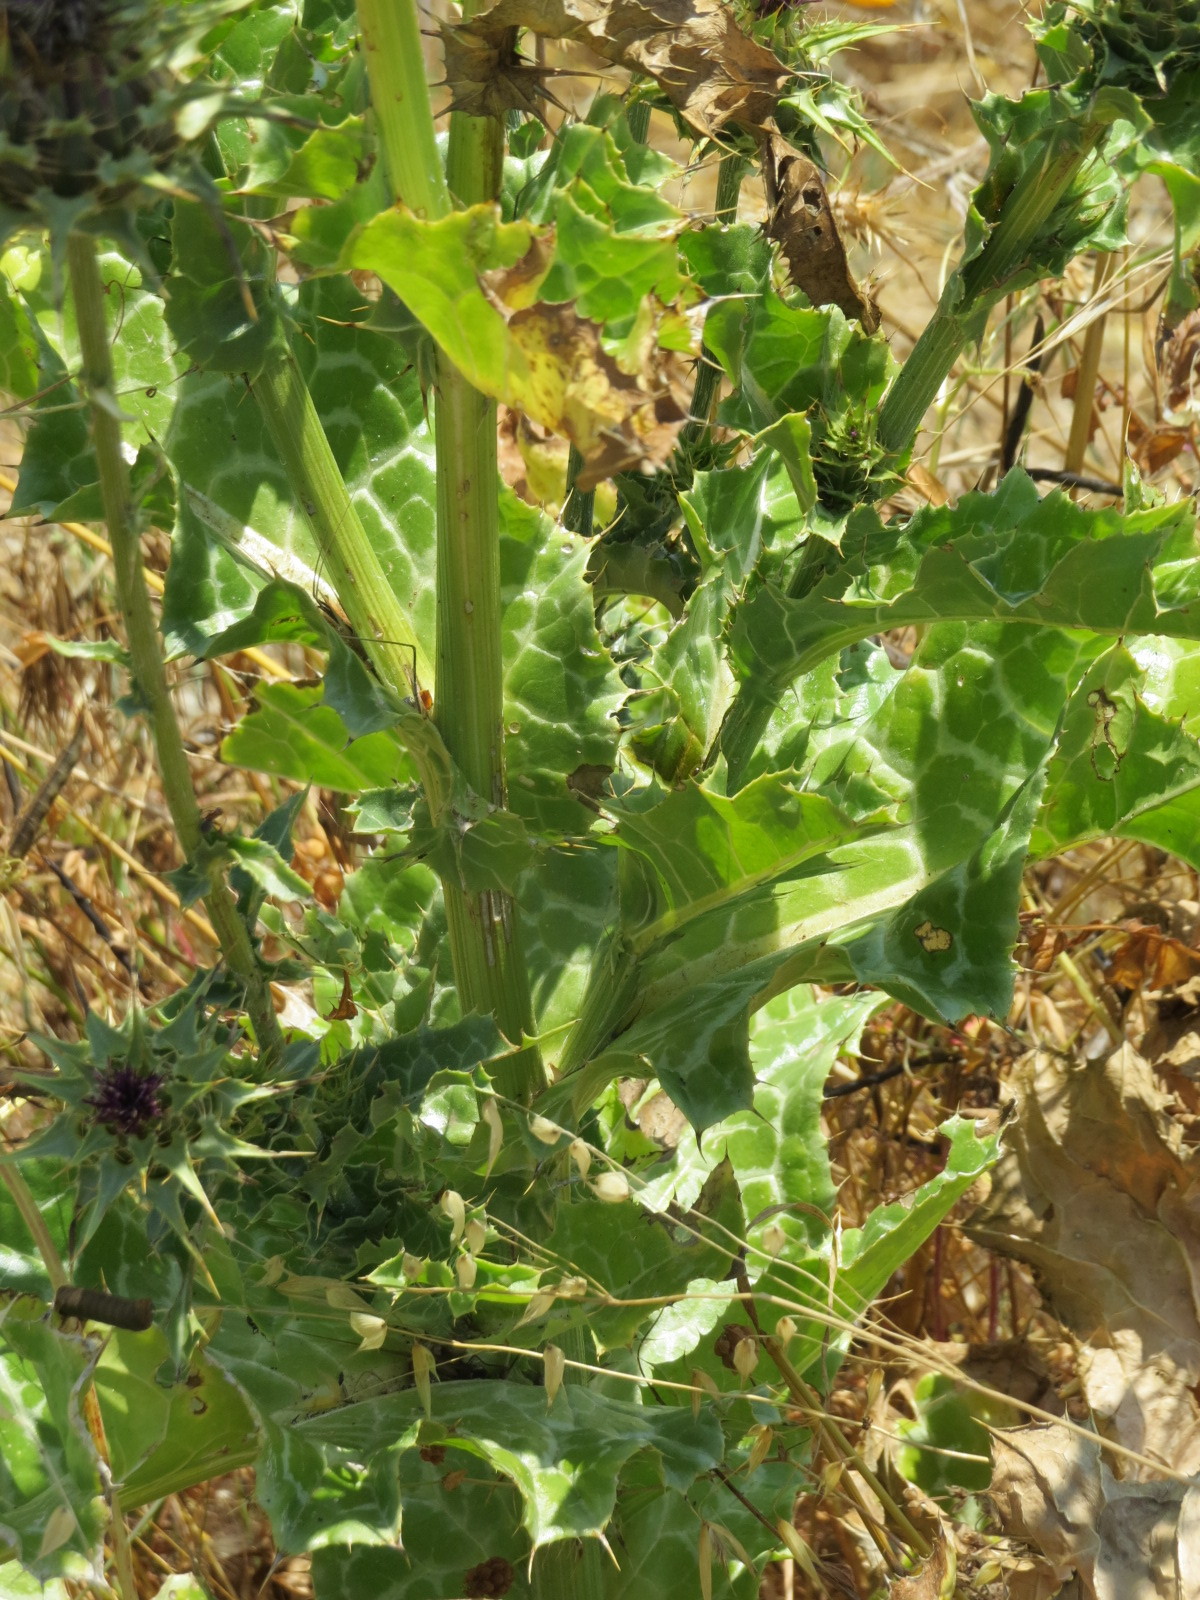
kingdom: Plantae
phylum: Tracheophyta
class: Magnoliopsida
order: Asterales
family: Asteraceae
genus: Silybum
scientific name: Silybum marianum
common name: Milk thistle
